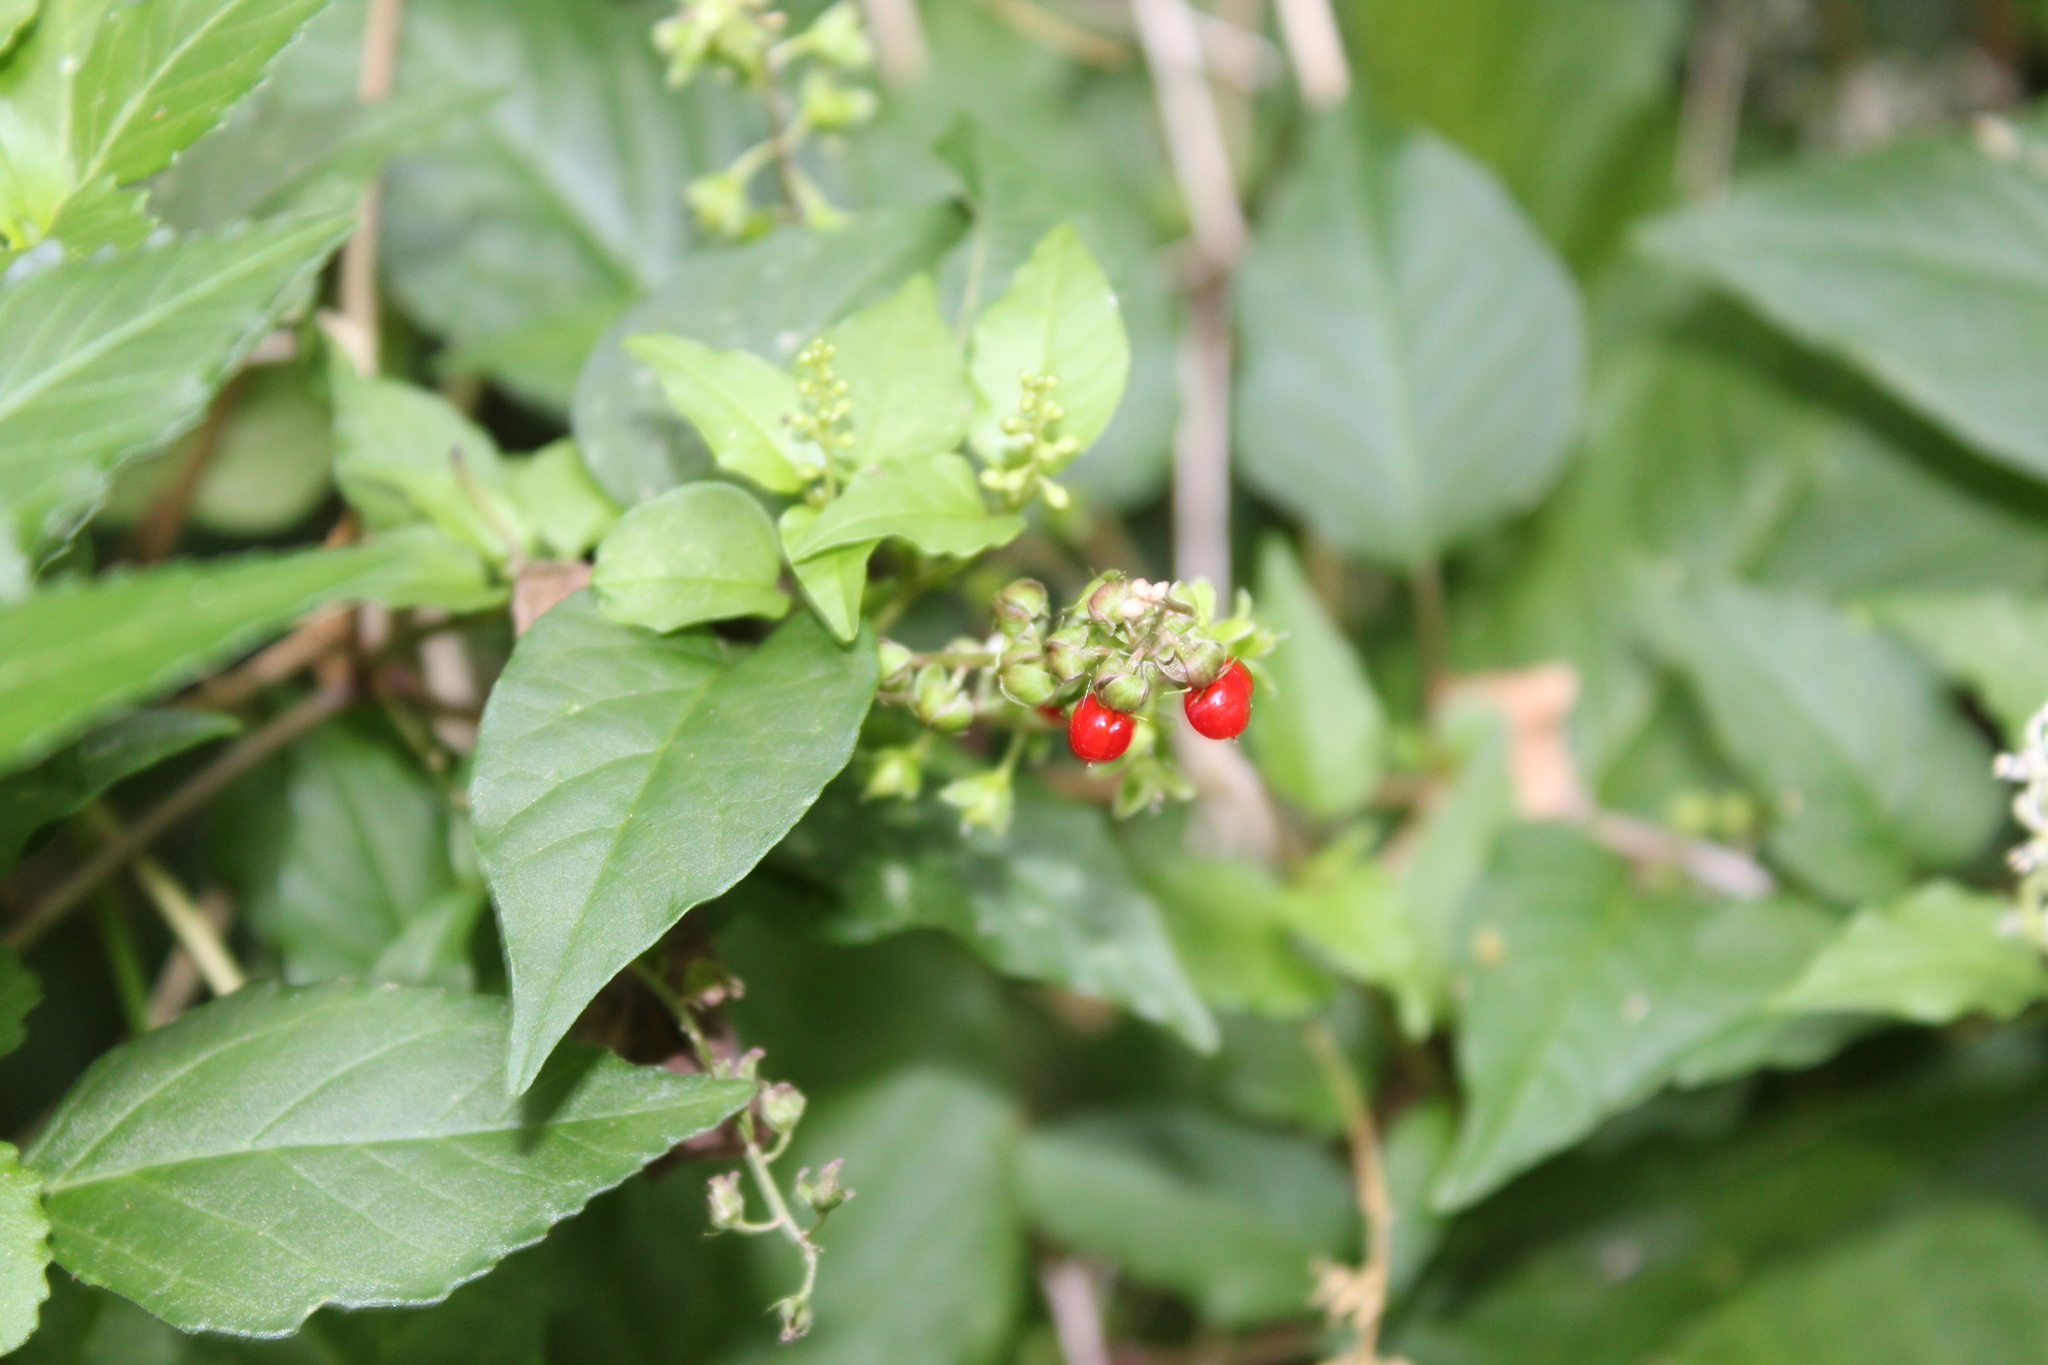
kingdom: Plantae
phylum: Tracheophyta
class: Magnoliopsida
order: Caryophyllales
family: Phytolaccaceae
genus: Rivina
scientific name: Rivina humilis
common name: Rougeplant
